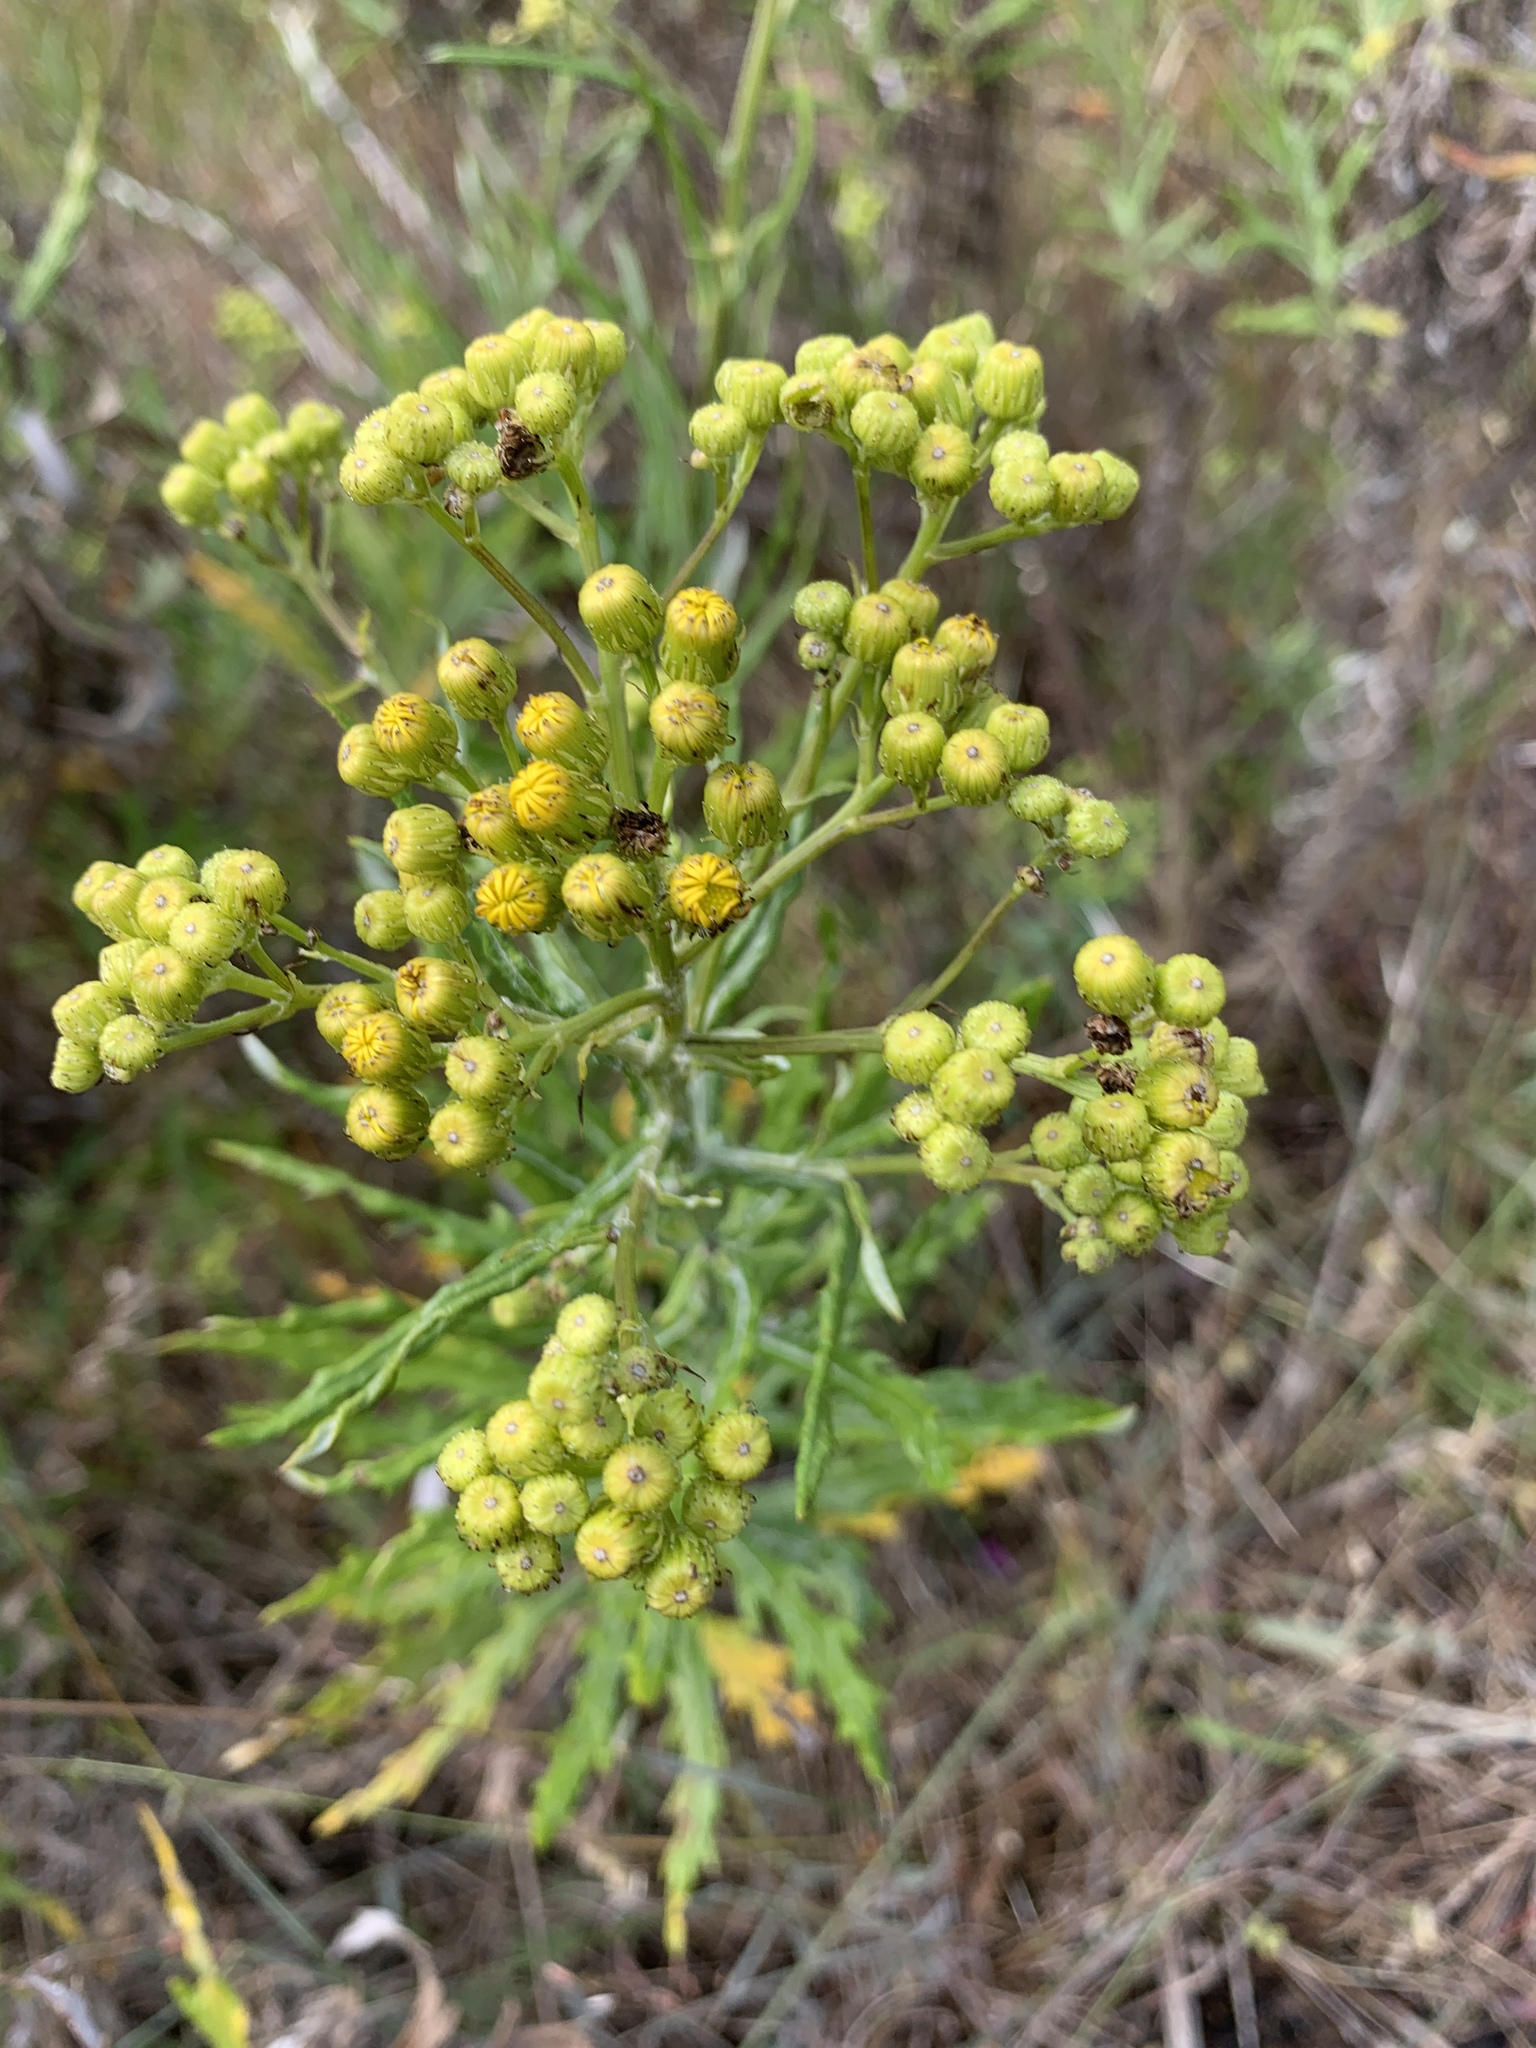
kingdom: Plantae
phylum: Tracheophyta
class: Magnoliopsida
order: Asterales
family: Asteraceae
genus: Senecio
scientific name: Senecio pterophorus
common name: Shoddy ragwort
